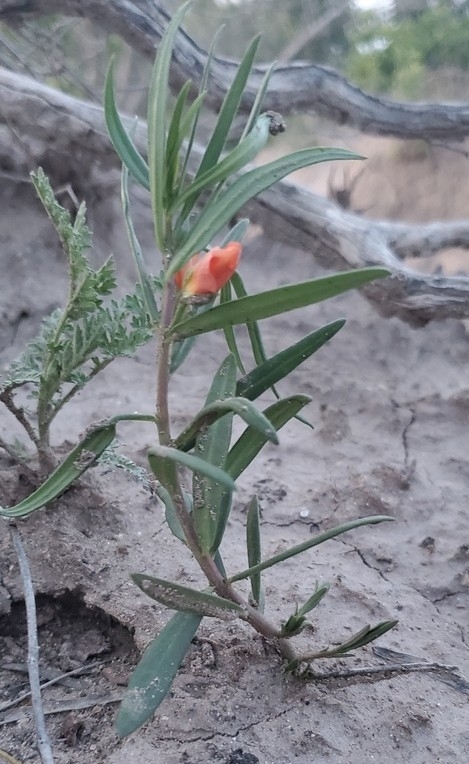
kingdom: Plantae
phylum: Tracheophyta
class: Magnoliopsida
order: Caryophyllales
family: Montiaceae
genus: Phemeranthus
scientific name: Phemeranthus aurantiacus
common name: Orange fameflower
